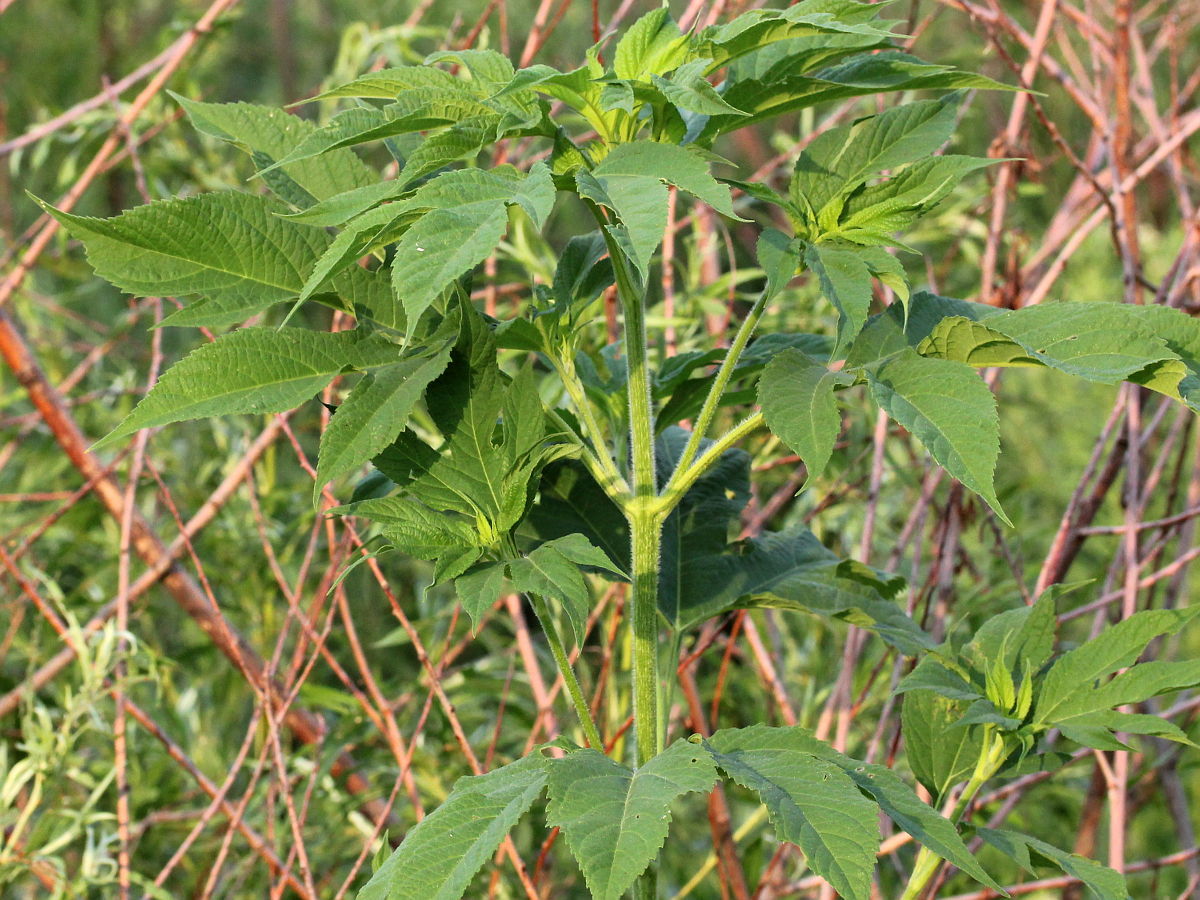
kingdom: Plantae
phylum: Tracheophyta
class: Magnoliopsida
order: Asterales
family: Asteraceae
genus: Ambrosia
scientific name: Ambrosia trifida
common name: Giant ragweed
